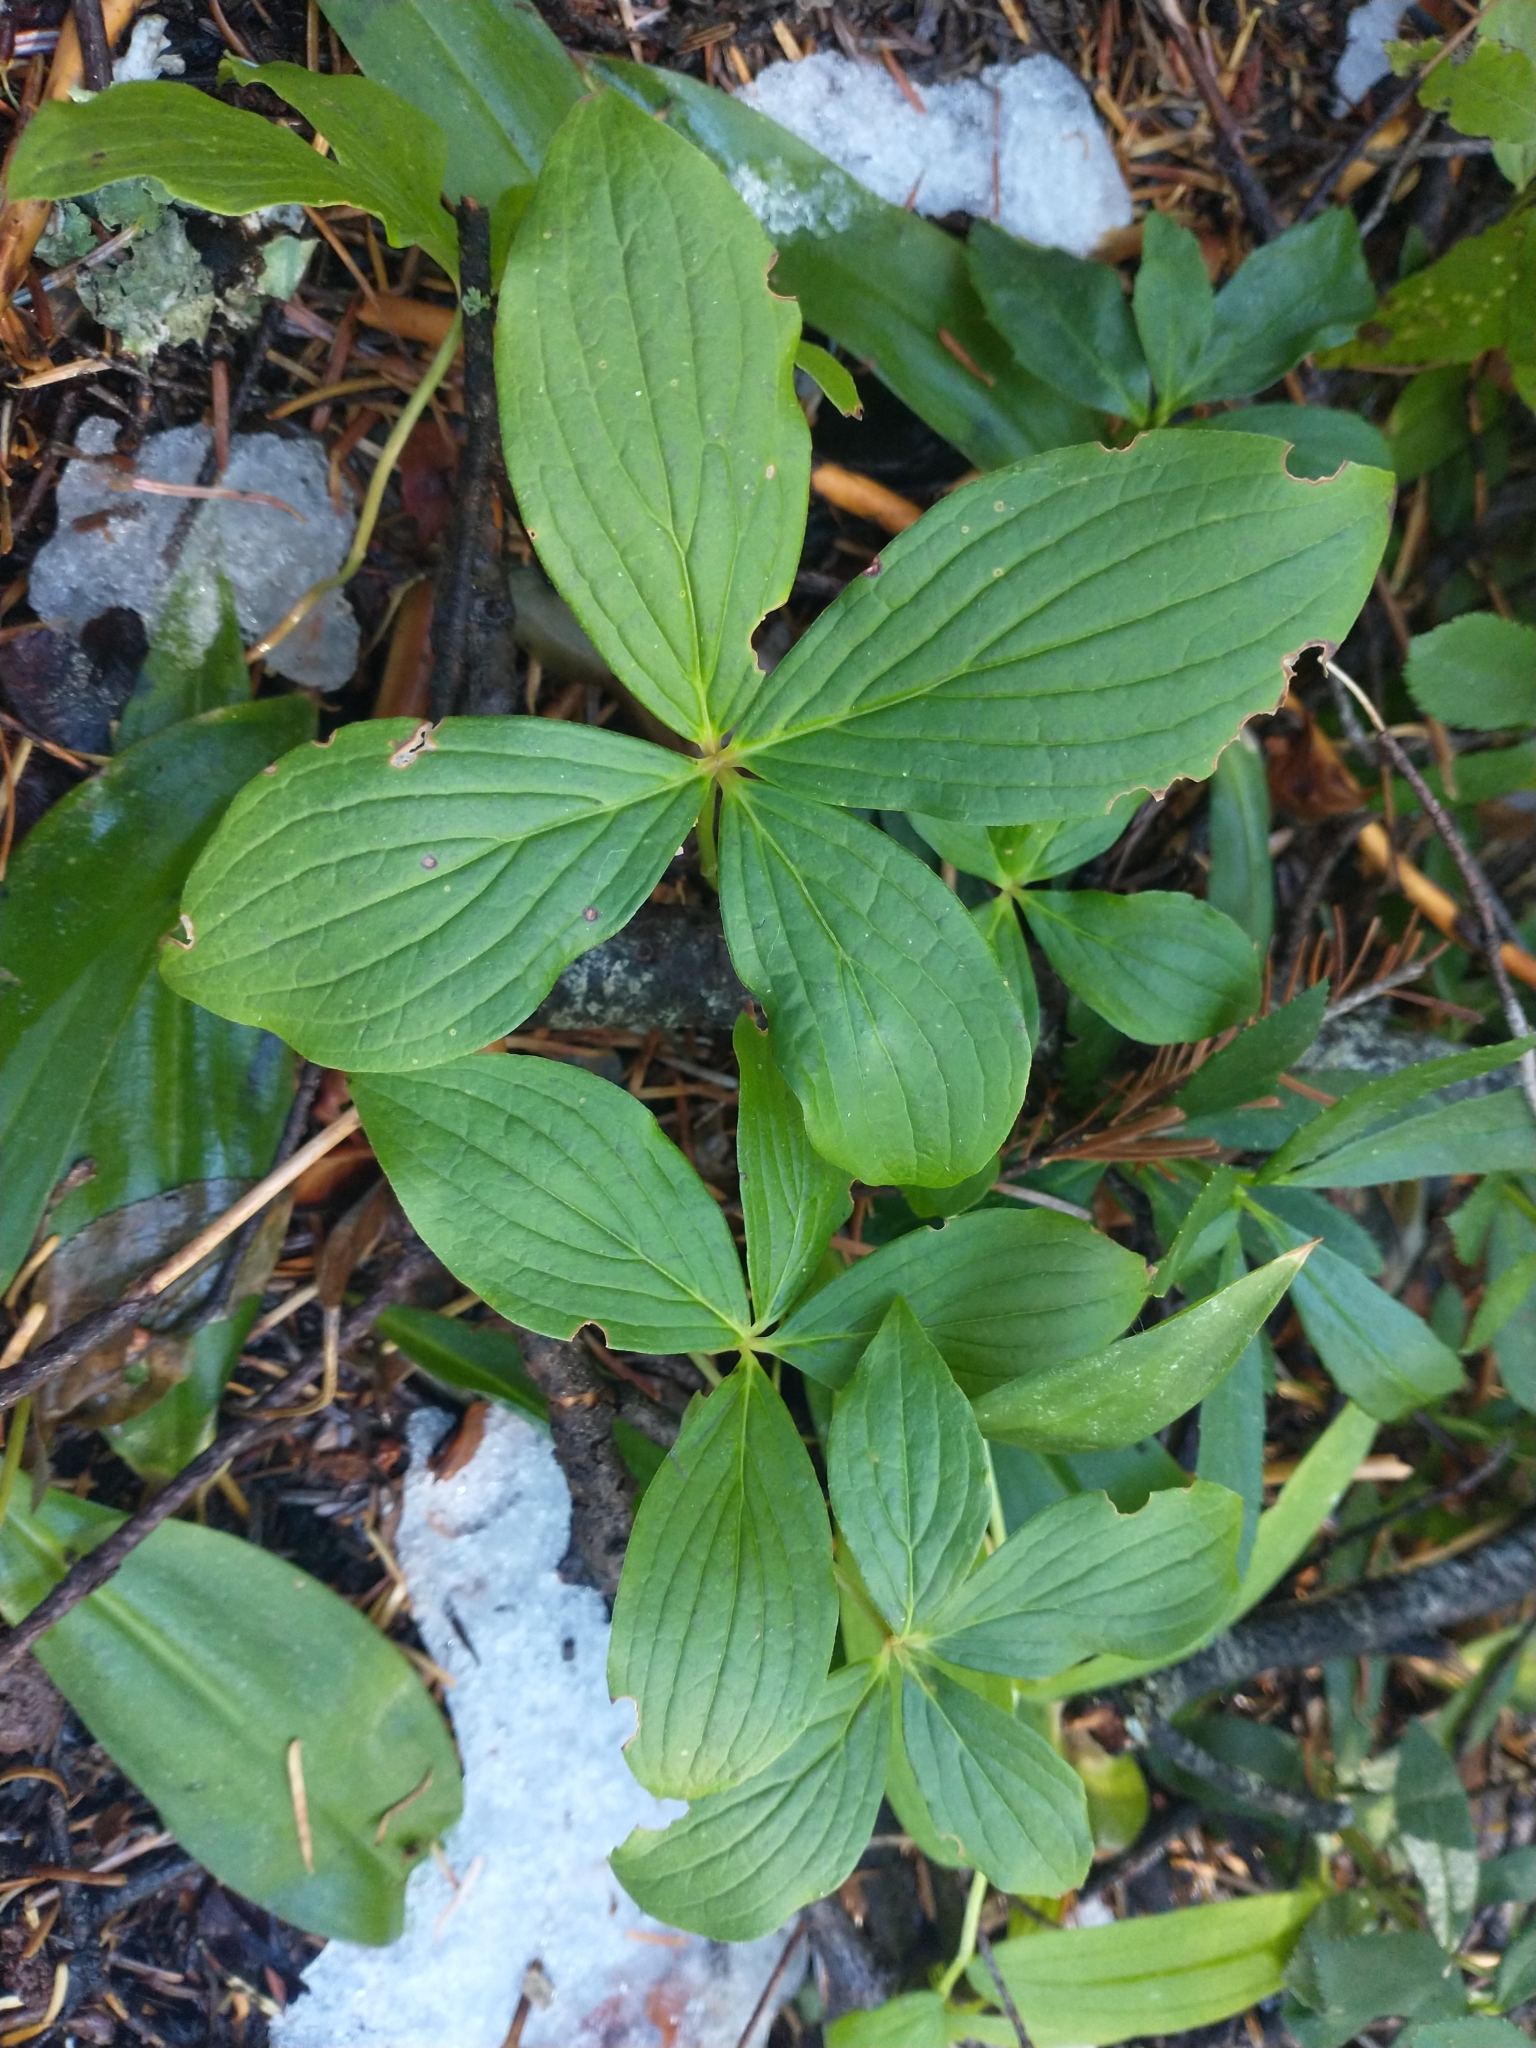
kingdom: Plantae
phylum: Tracheophyta
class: Magnoliopsida
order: Cornales
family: Cornaceae
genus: Cornus
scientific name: Cornus unalaschkensis
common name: Alaska bunchberry
